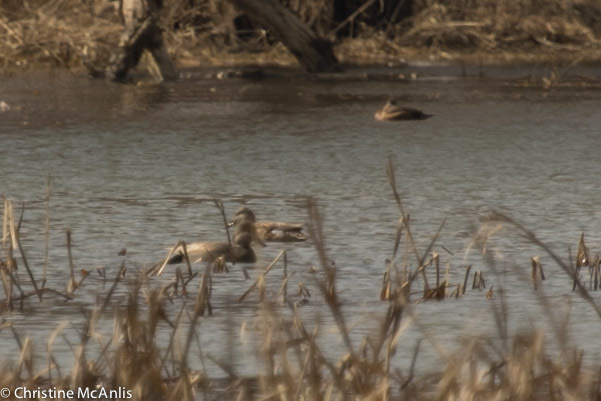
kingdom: Animalia
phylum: Chordata
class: Aves
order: Anseriformes
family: Anatidae
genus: Mareca
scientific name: Mareca strepera
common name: Gadwall
